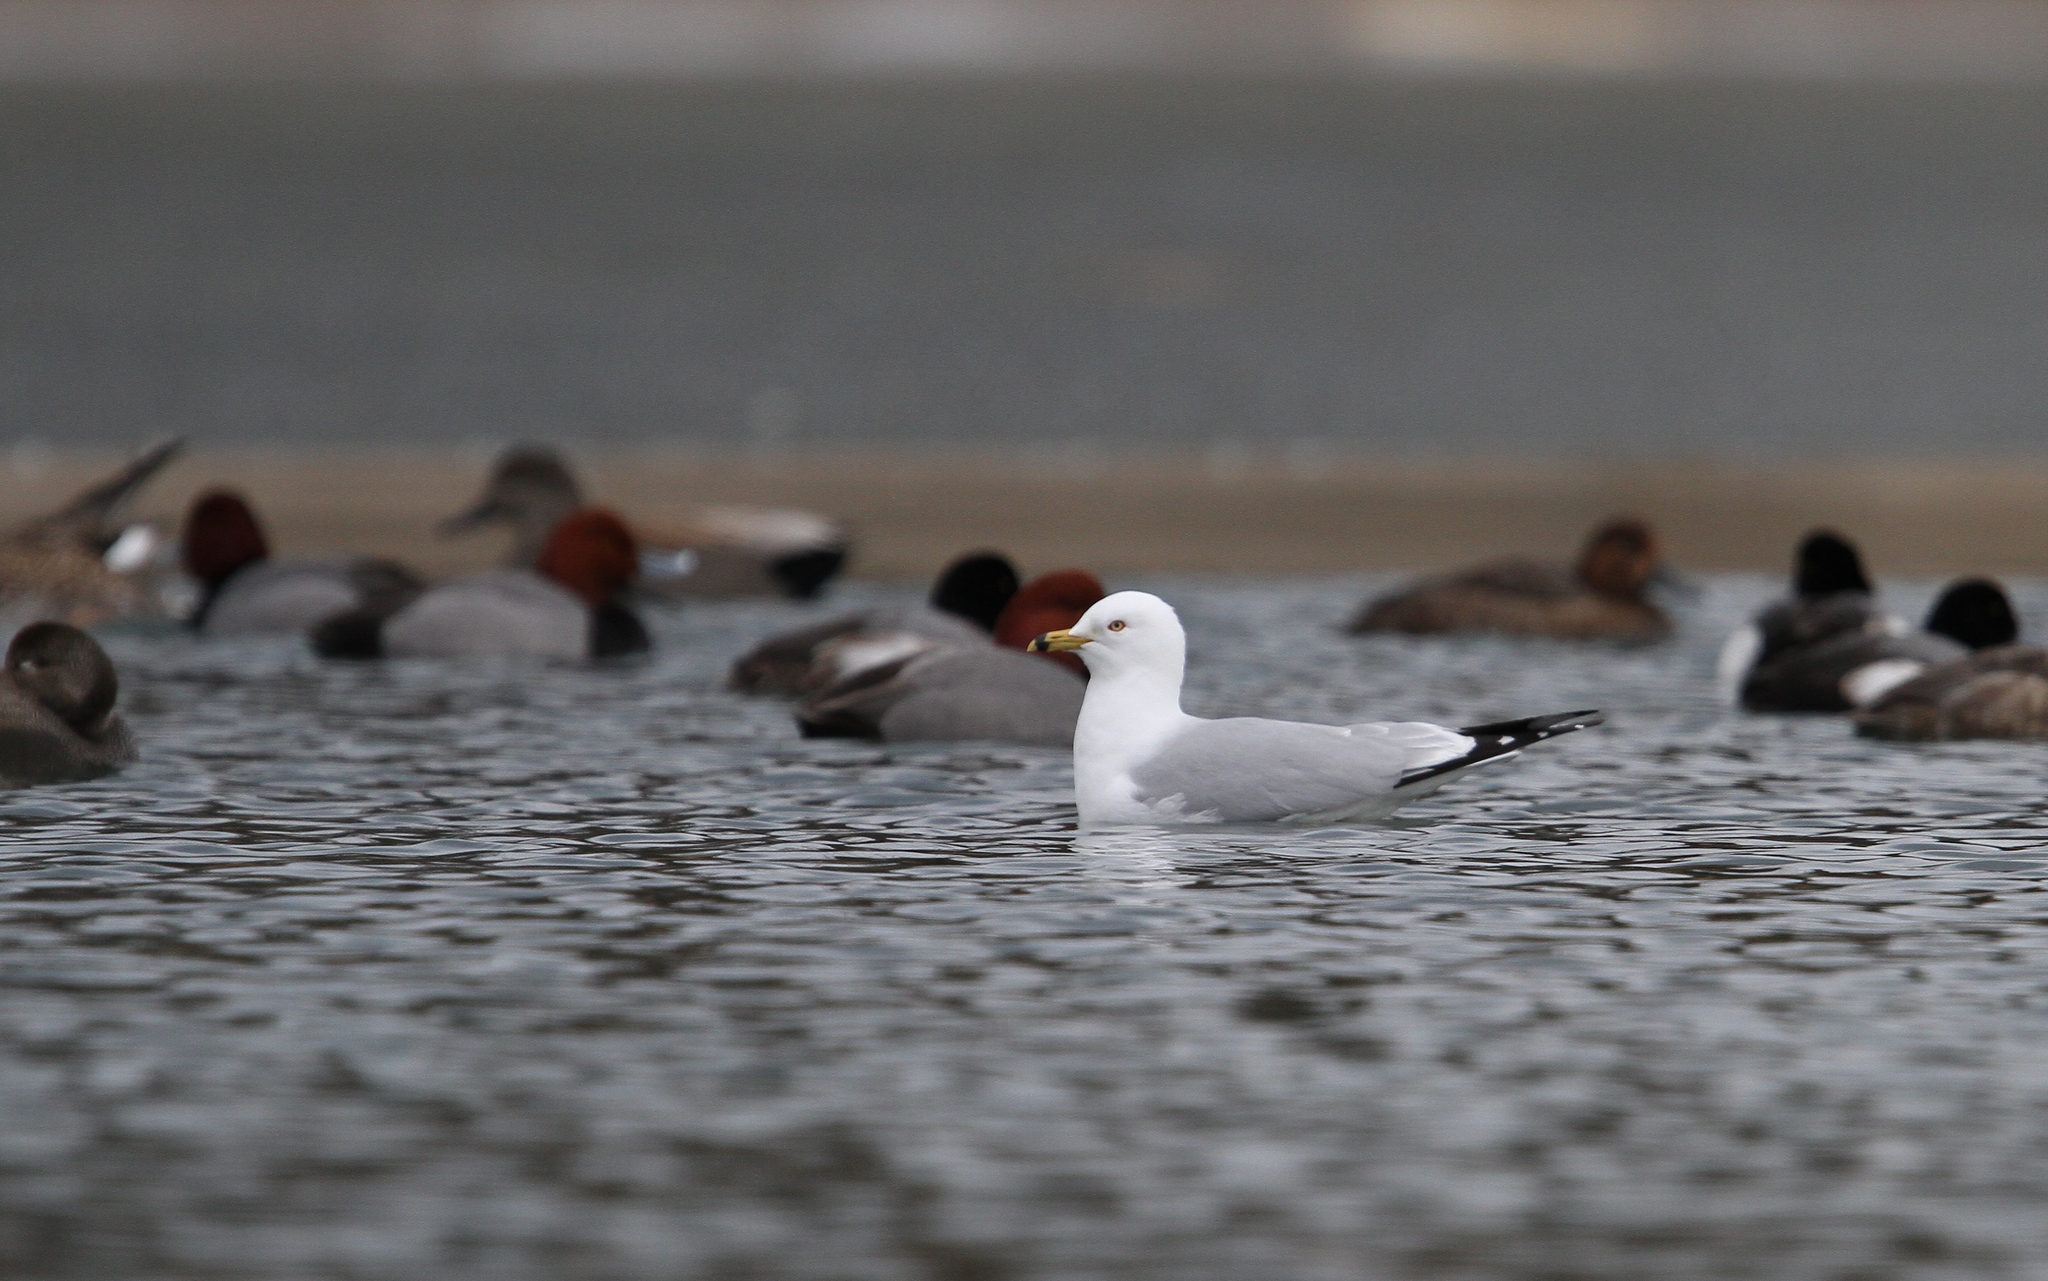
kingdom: Animalia
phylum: Chordata
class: Aves
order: Charadriiformes
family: Laridae
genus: Larus
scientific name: Larus delawarensis
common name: Ring-billed gull
